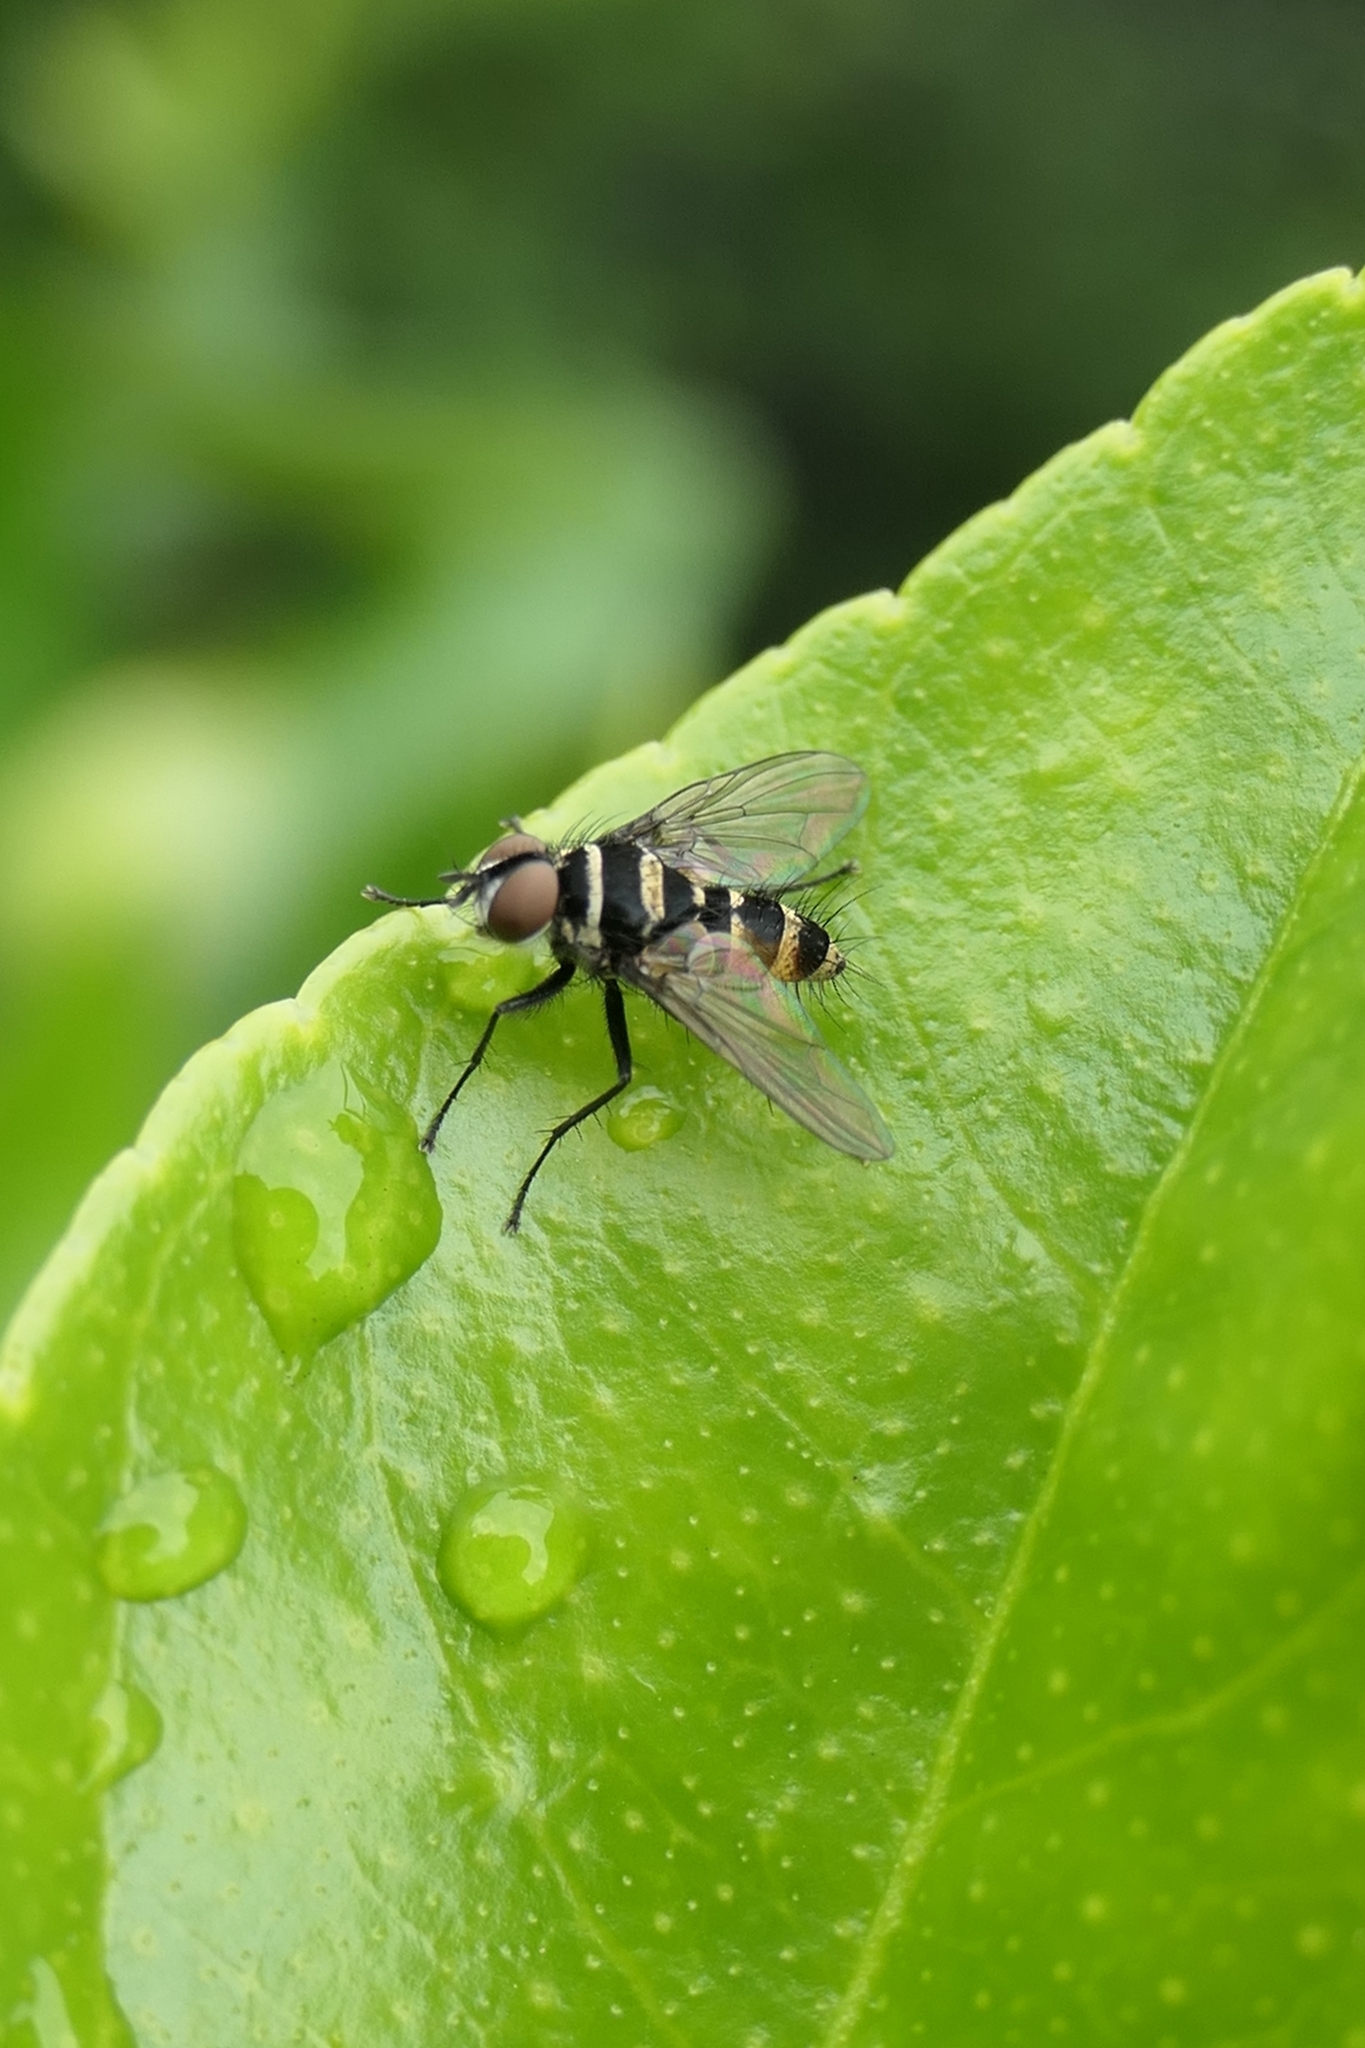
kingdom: Animalia
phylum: Arthropoda
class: Insecta
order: Diptera
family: Tachinidae
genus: Trigonospila
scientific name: Trigonospila brevifacies
